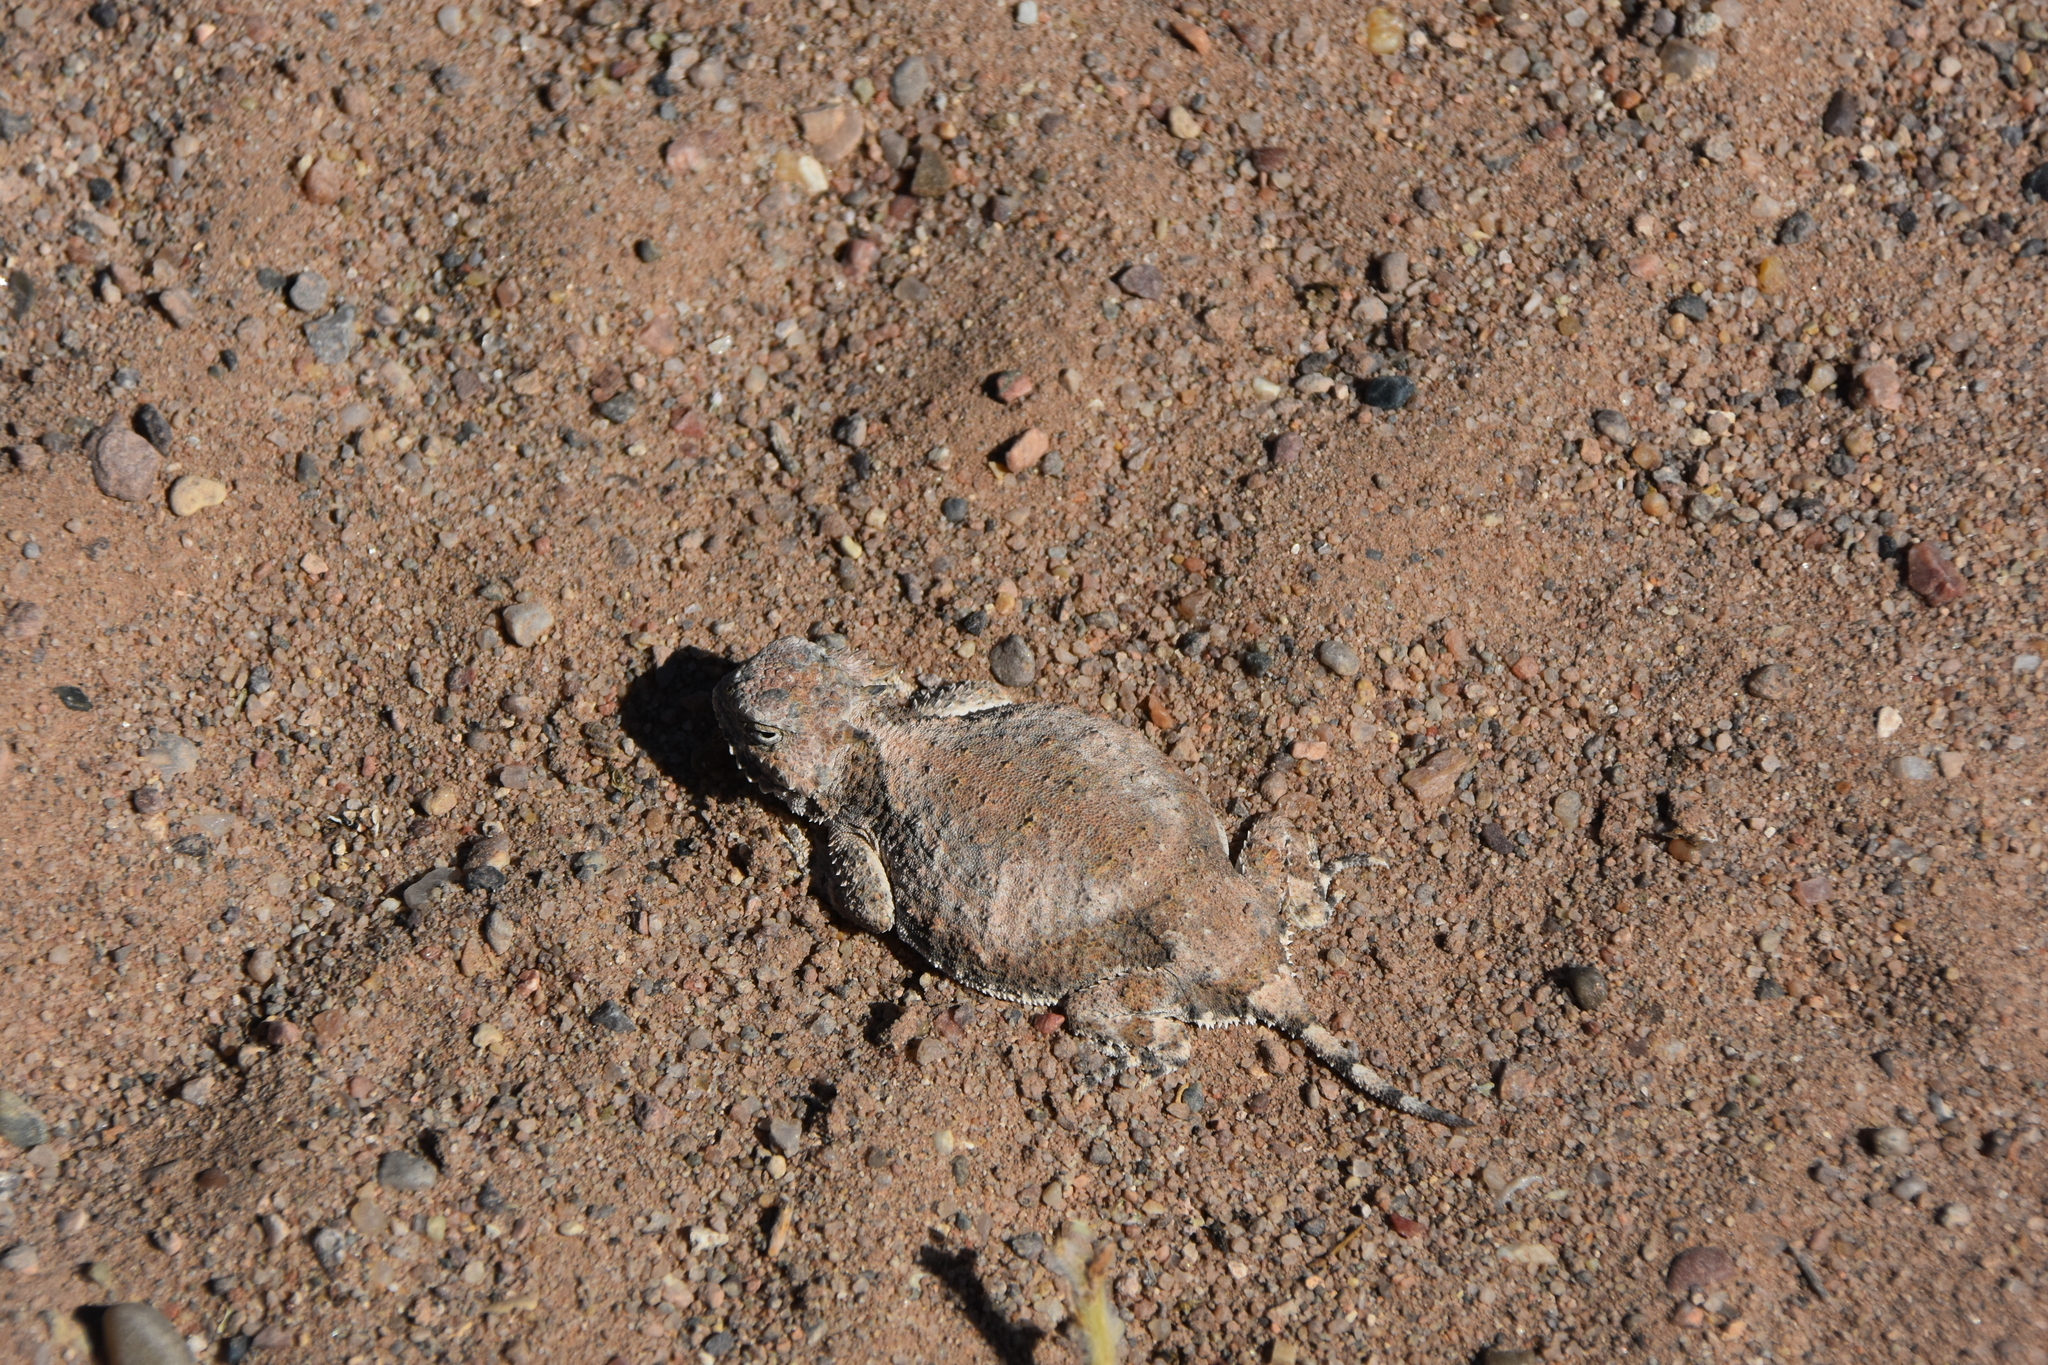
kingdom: Animalia
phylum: Chordata
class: Squamata
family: Phrynosomatidae
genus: Phrynosoma
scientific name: Phrynosoma modestum
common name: Roundtail horned lizard
